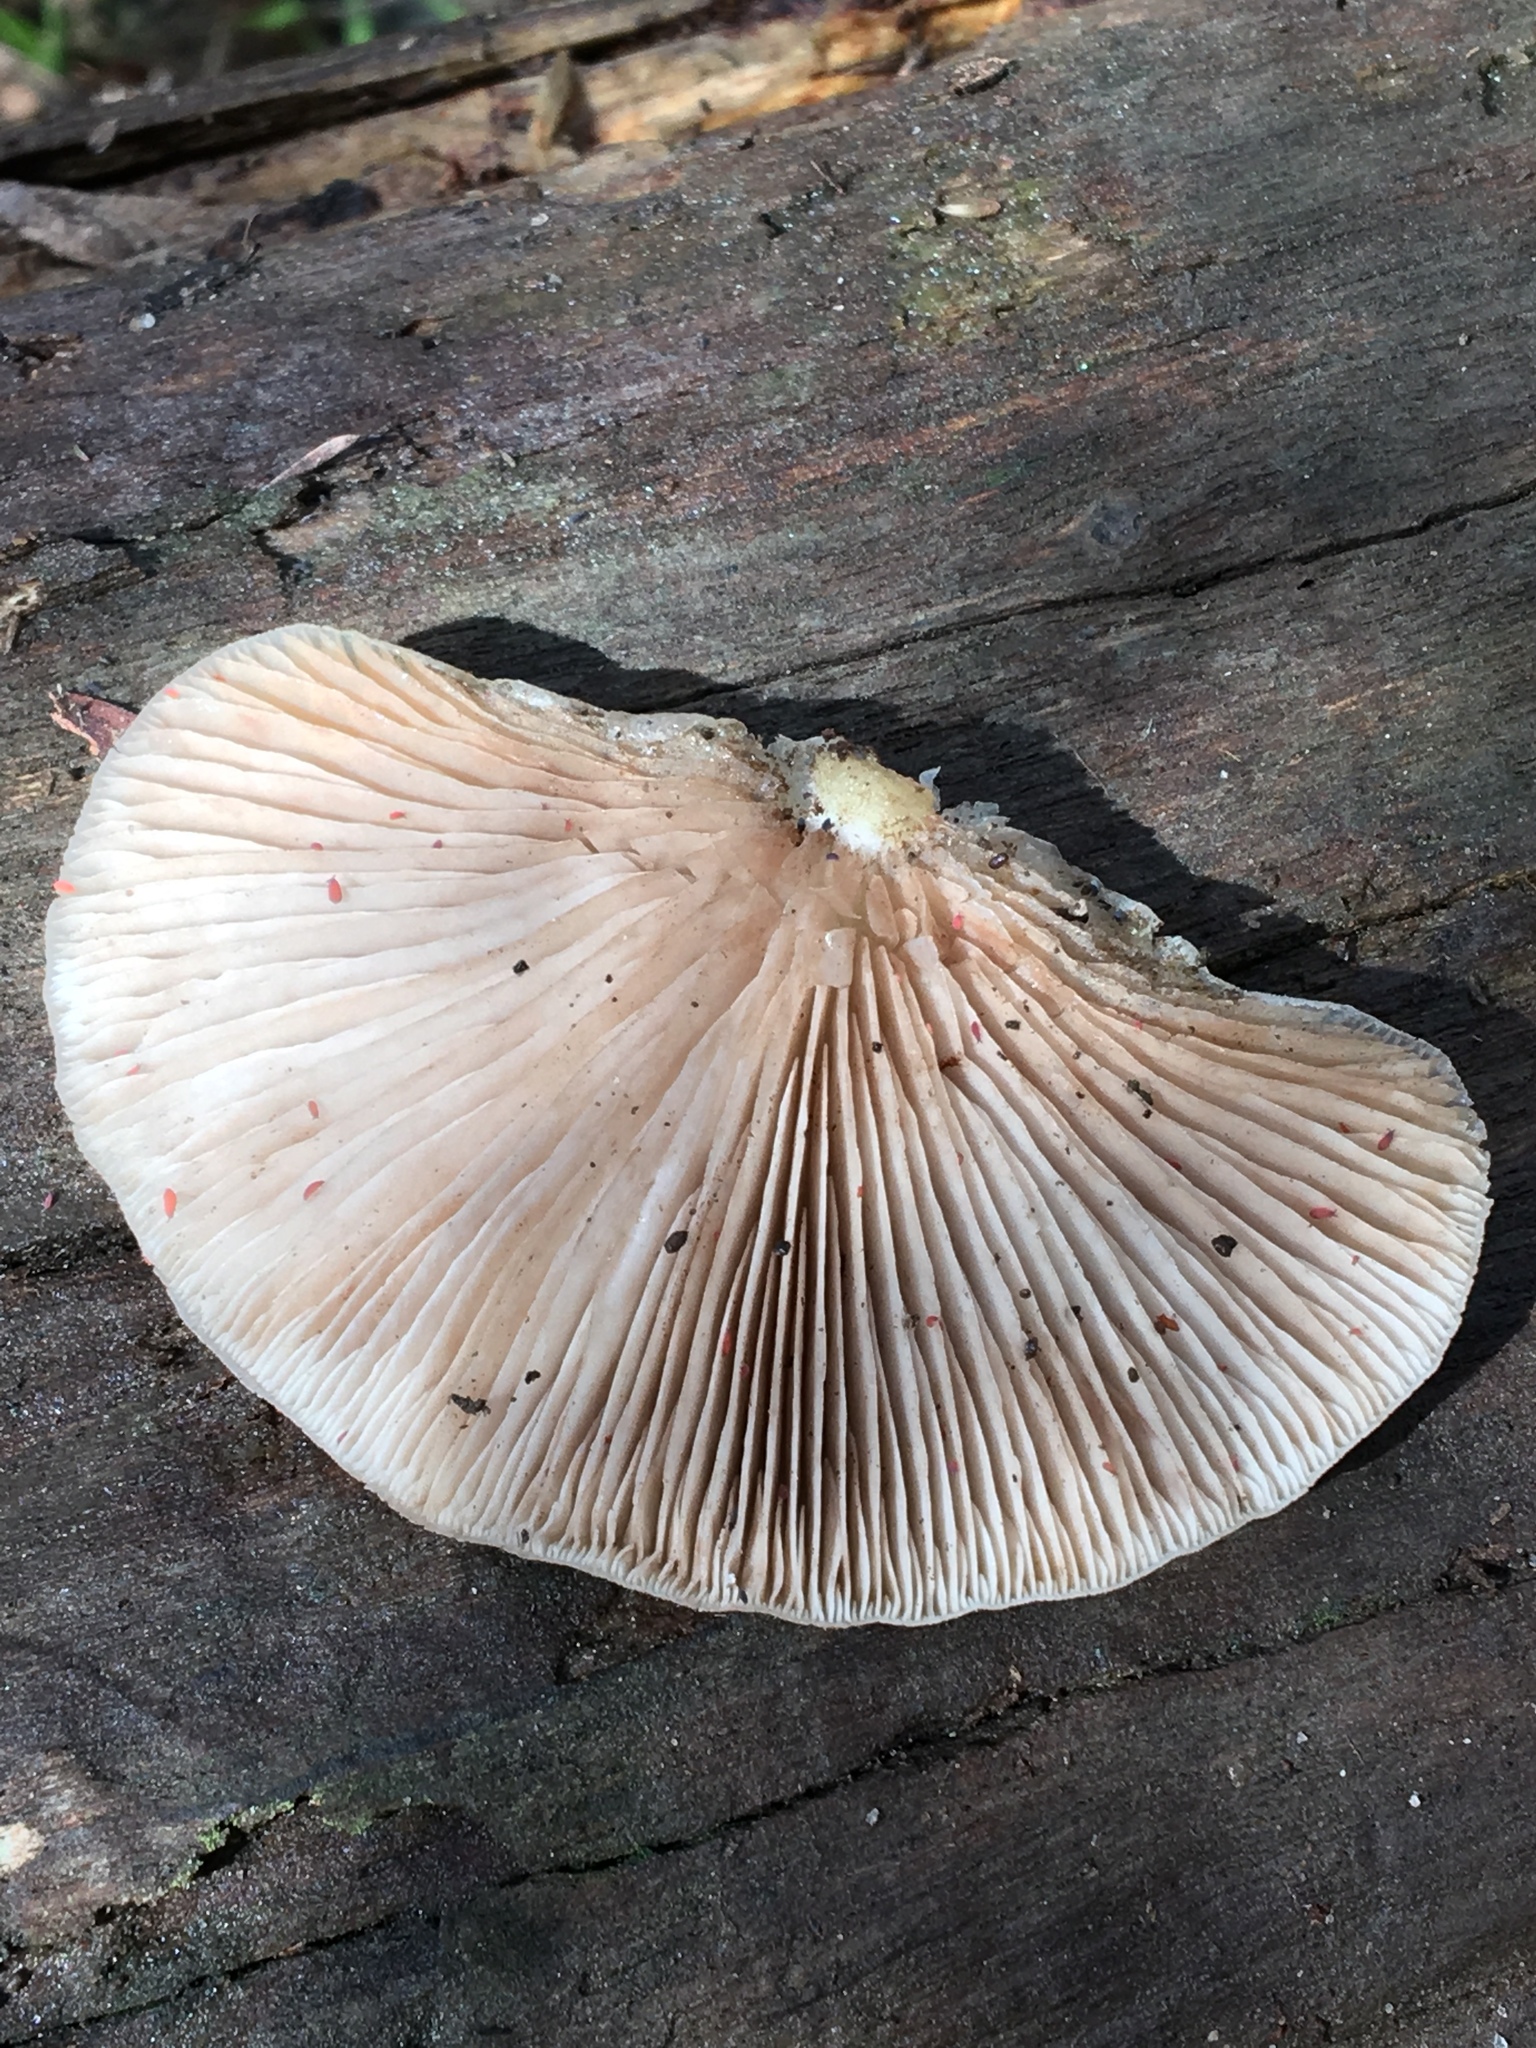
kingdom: Fungi
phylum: Basidiomycota
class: Agaricomycetes
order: Agaricales
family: Crepidotaceae
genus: Crepidotus
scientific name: Crepidotus nephrodes
